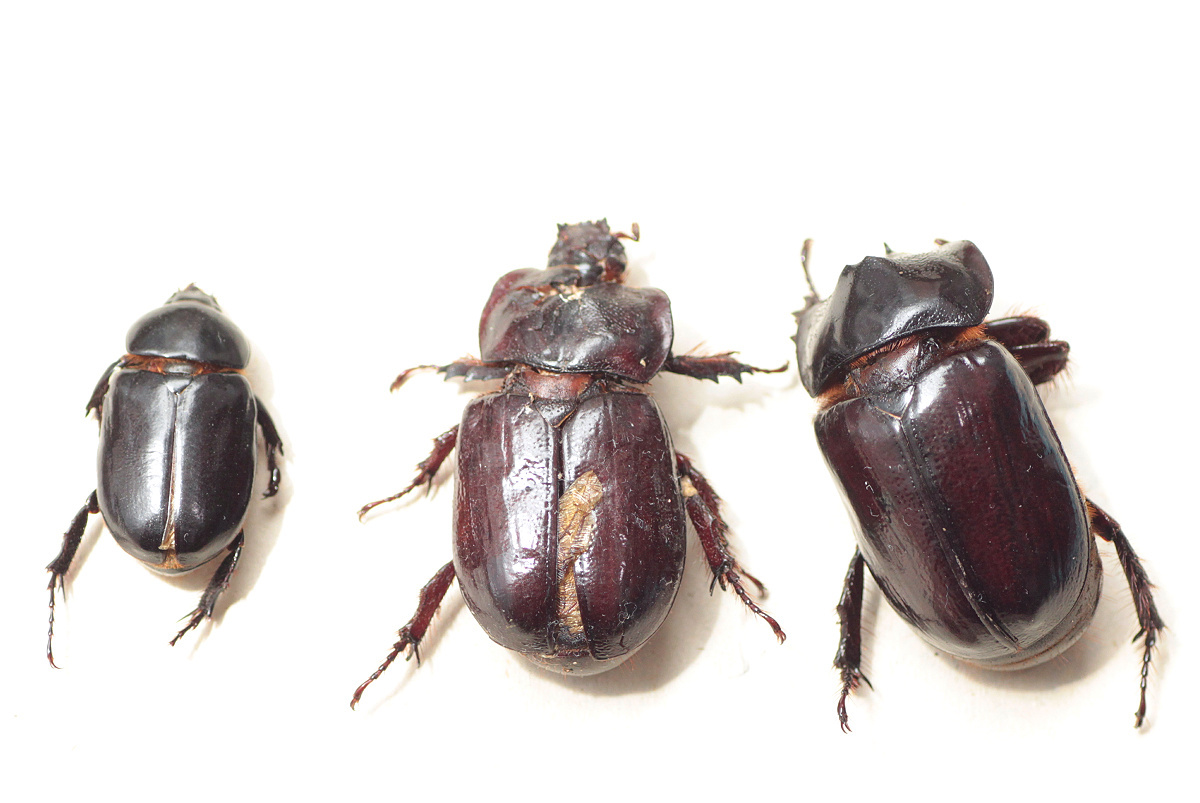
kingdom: Animalia
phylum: Arthropoda
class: Insecta
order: Coleoptera
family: Scarabaeidae
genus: Heterogomphus
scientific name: Heterogomphus dilaticollis
